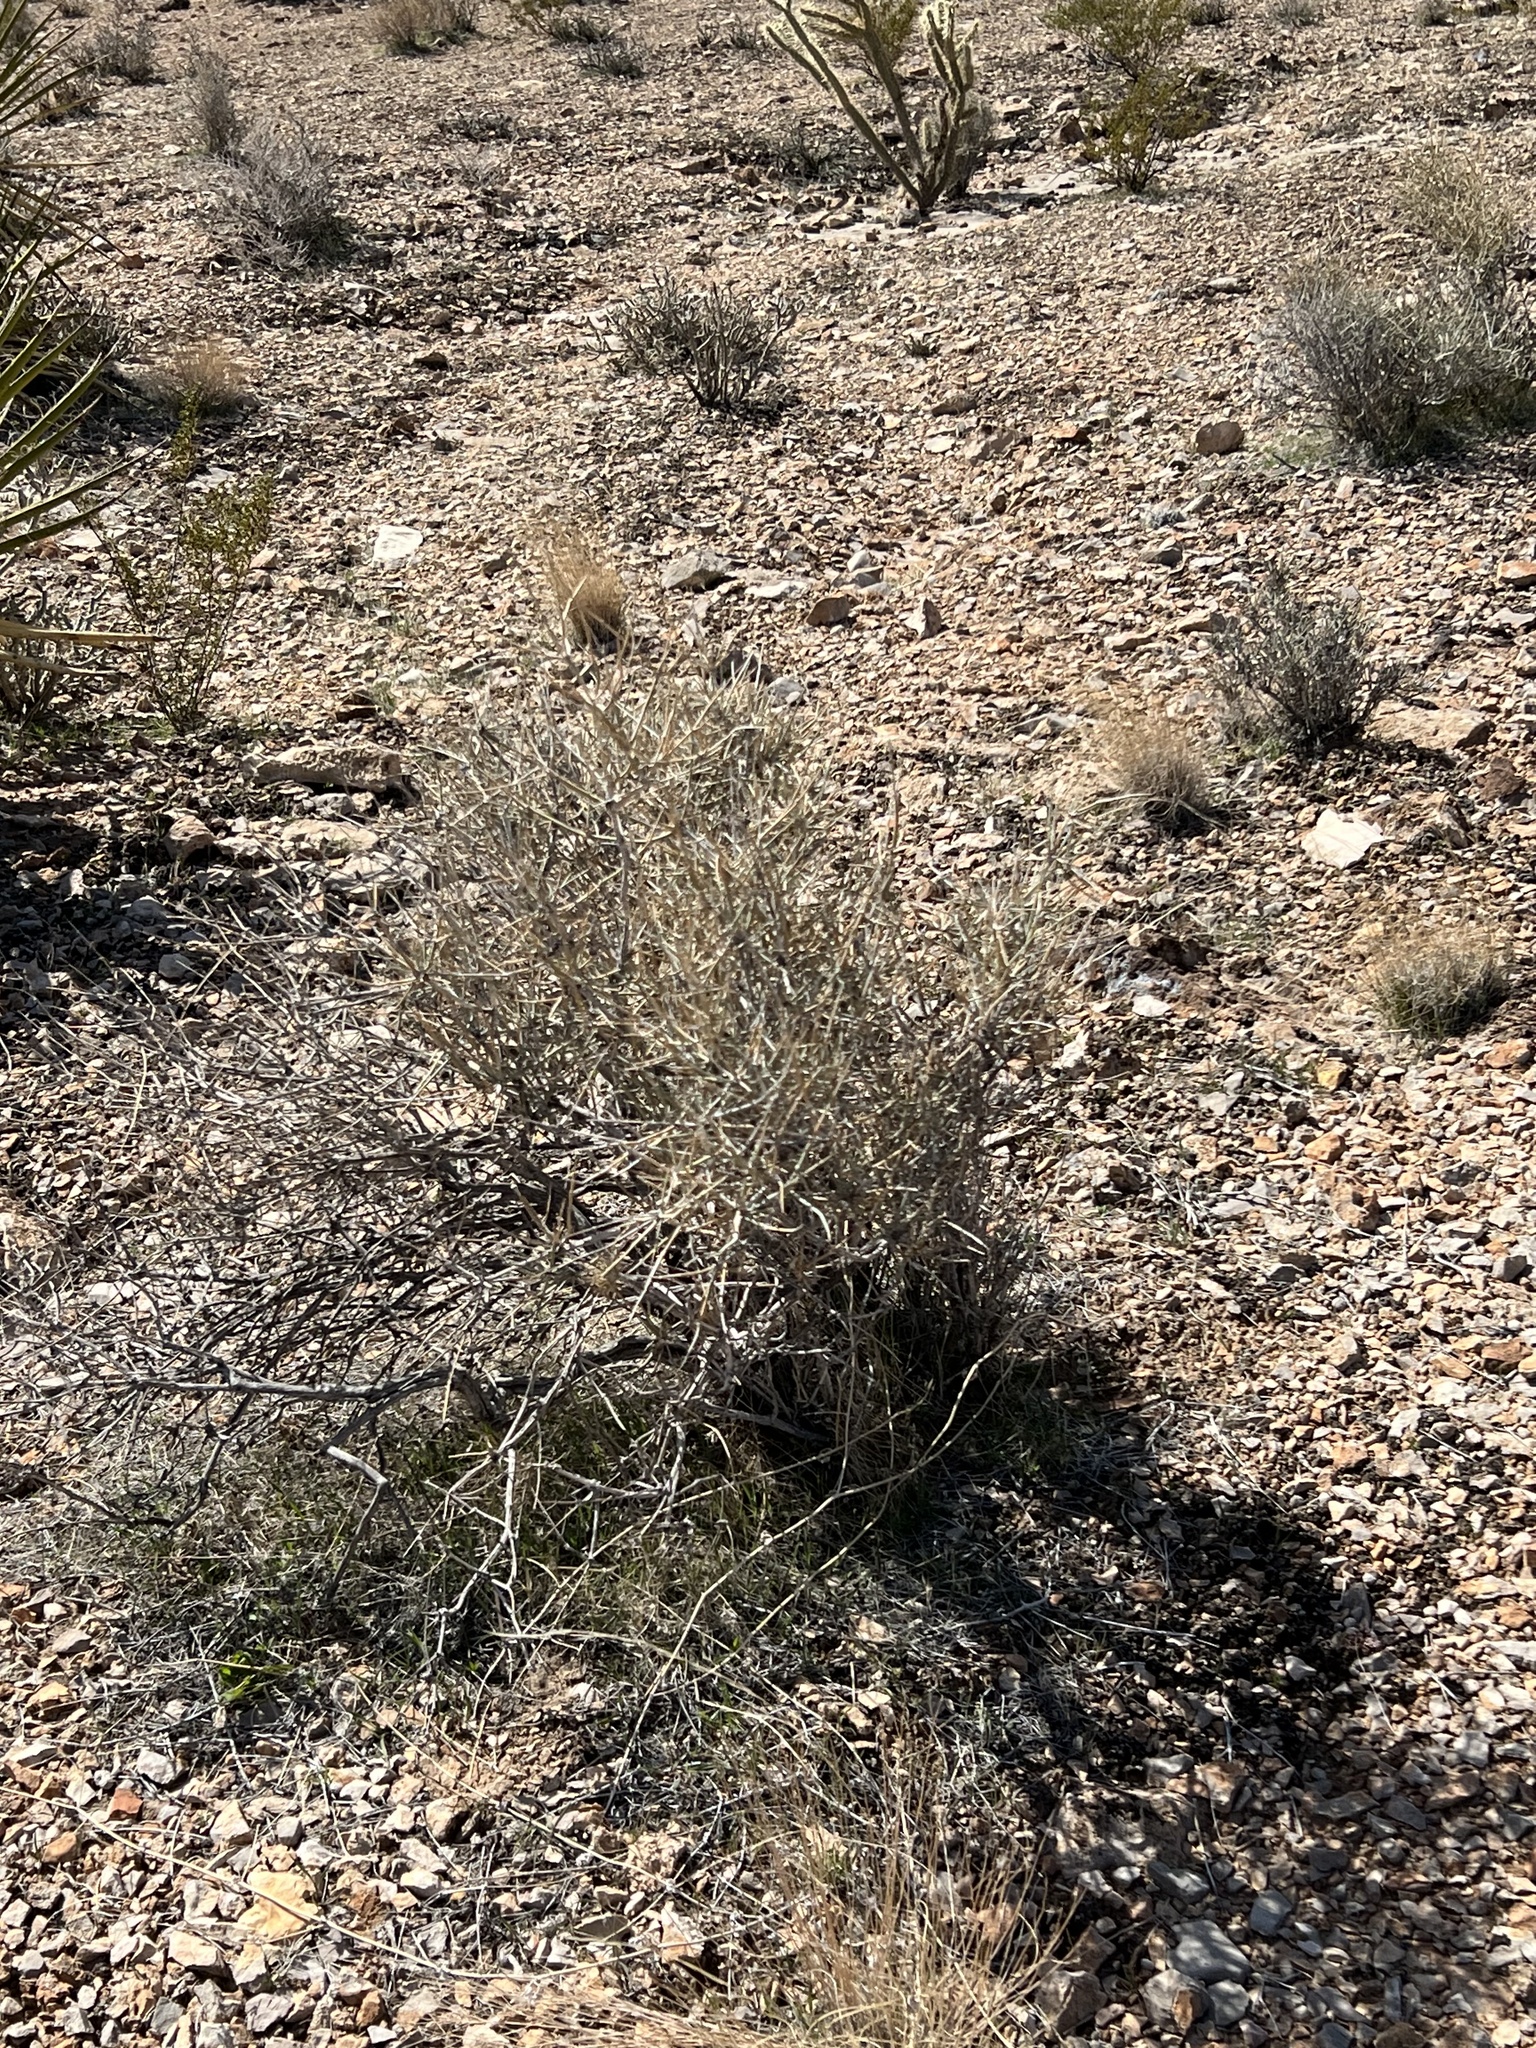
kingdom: Plantae
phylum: Tracheophyta
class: Gnetopsida
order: Ephedrales
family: Ephedraceae
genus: Ephedra
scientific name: Ephedra nevadensis
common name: Gray ephedra
